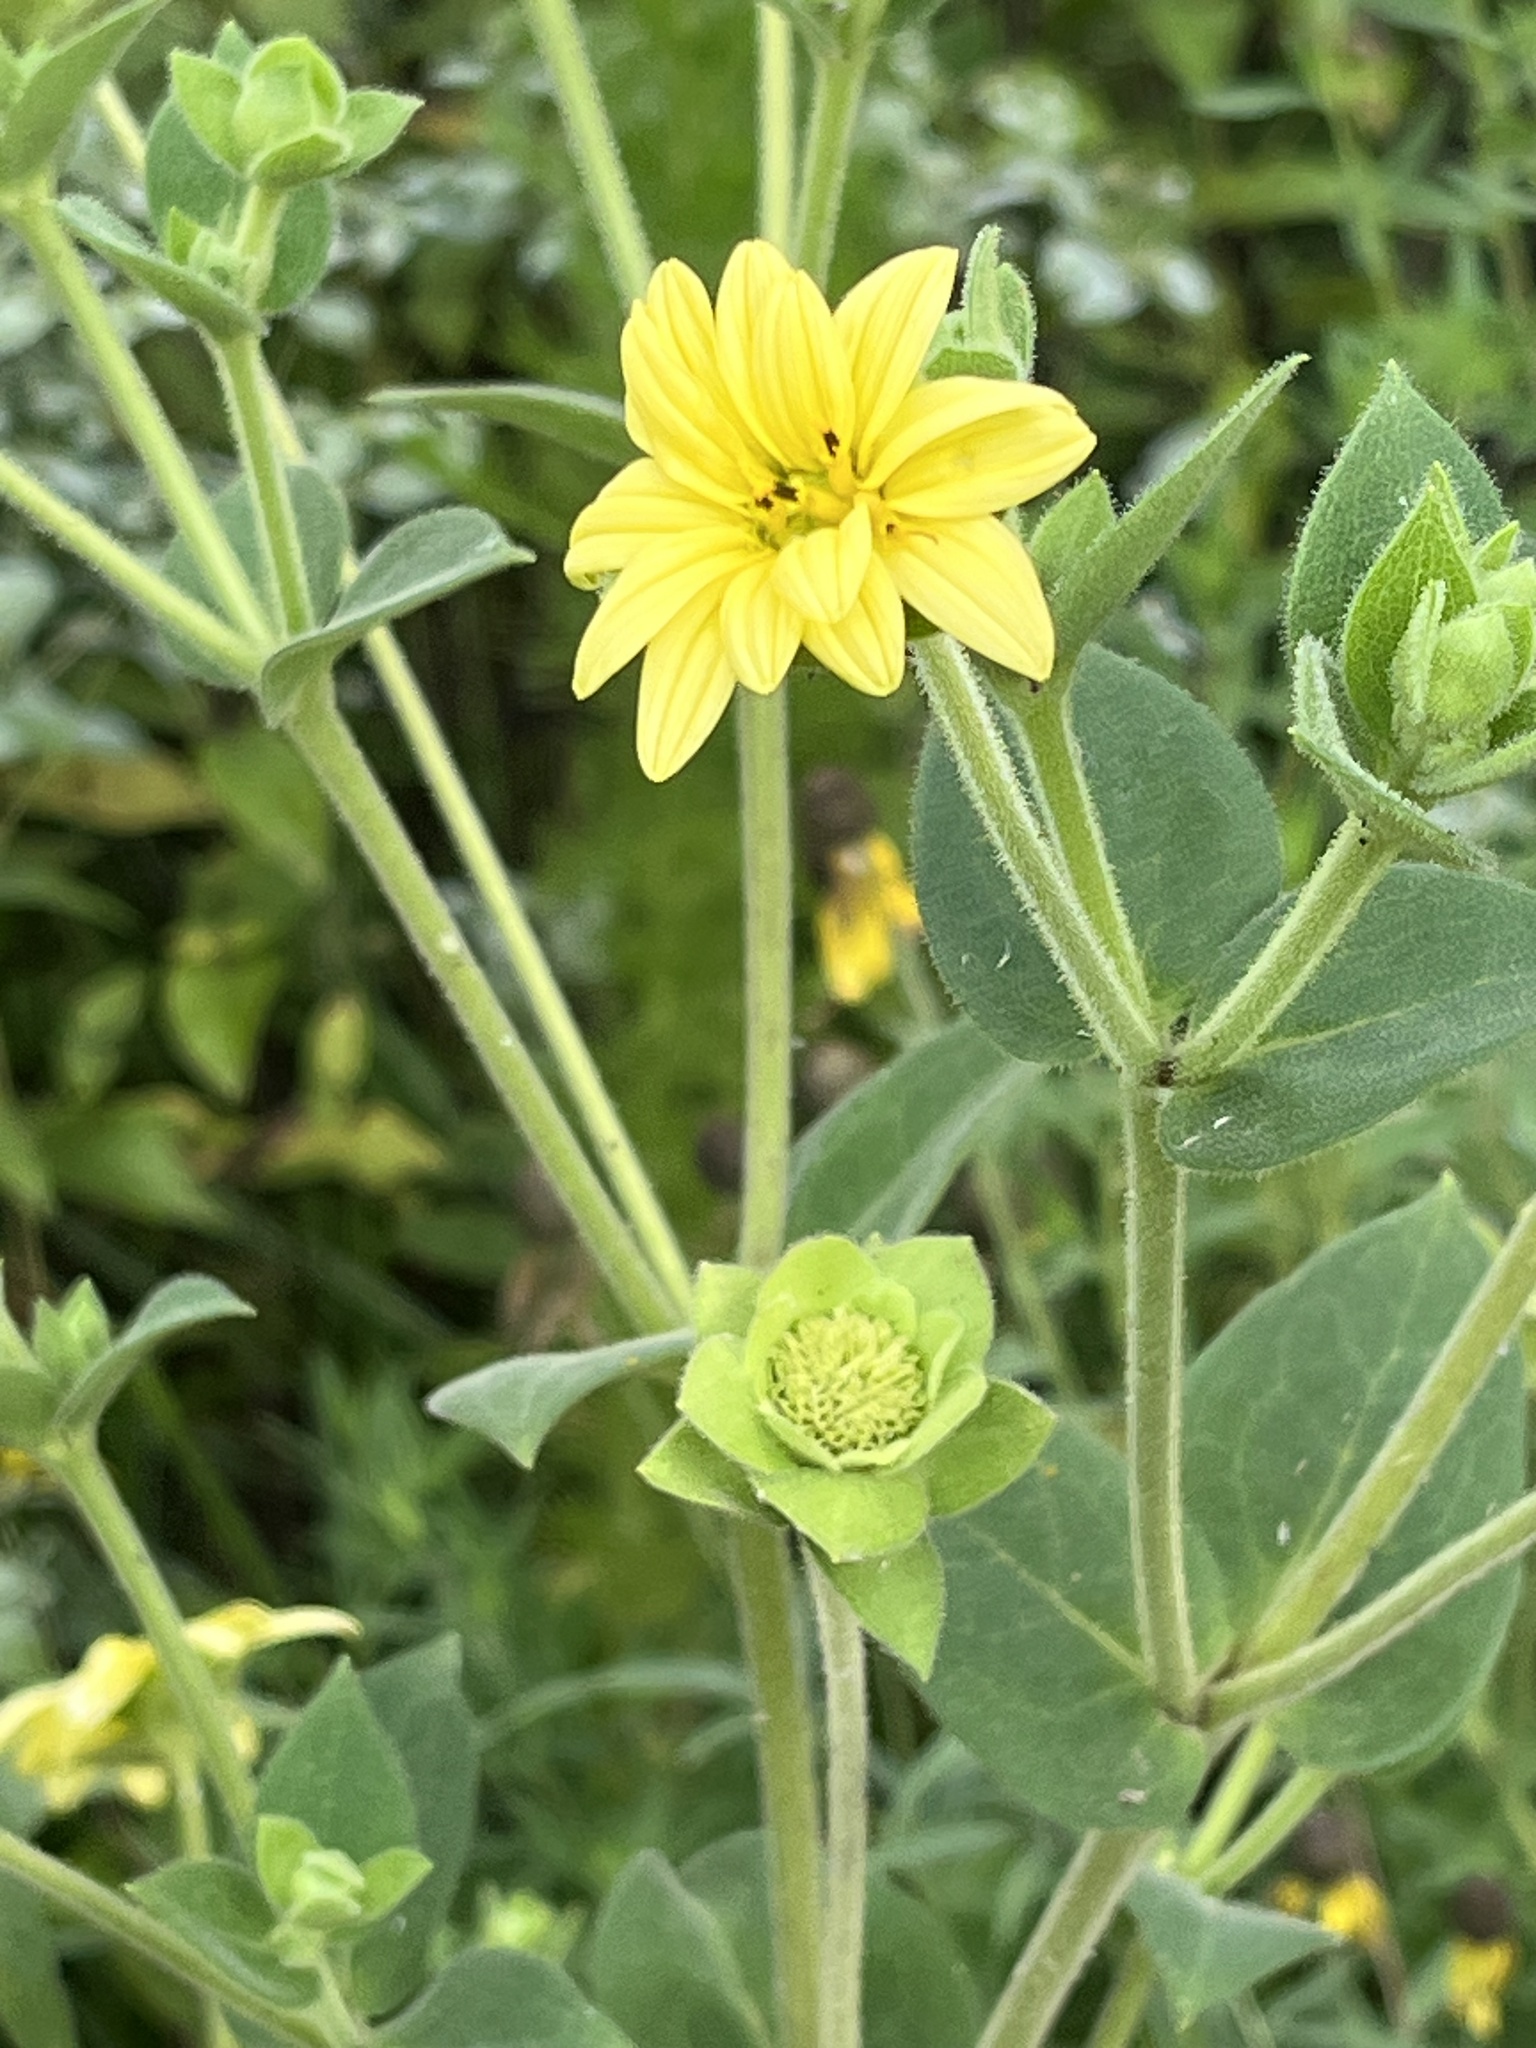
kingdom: Plantae
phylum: Tracheophyta
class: Magnoliopsida
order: Asterales
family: Asteraceae
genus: Silphium
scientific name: Silphium integrifolium
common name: Whole-leaf rosinweed
